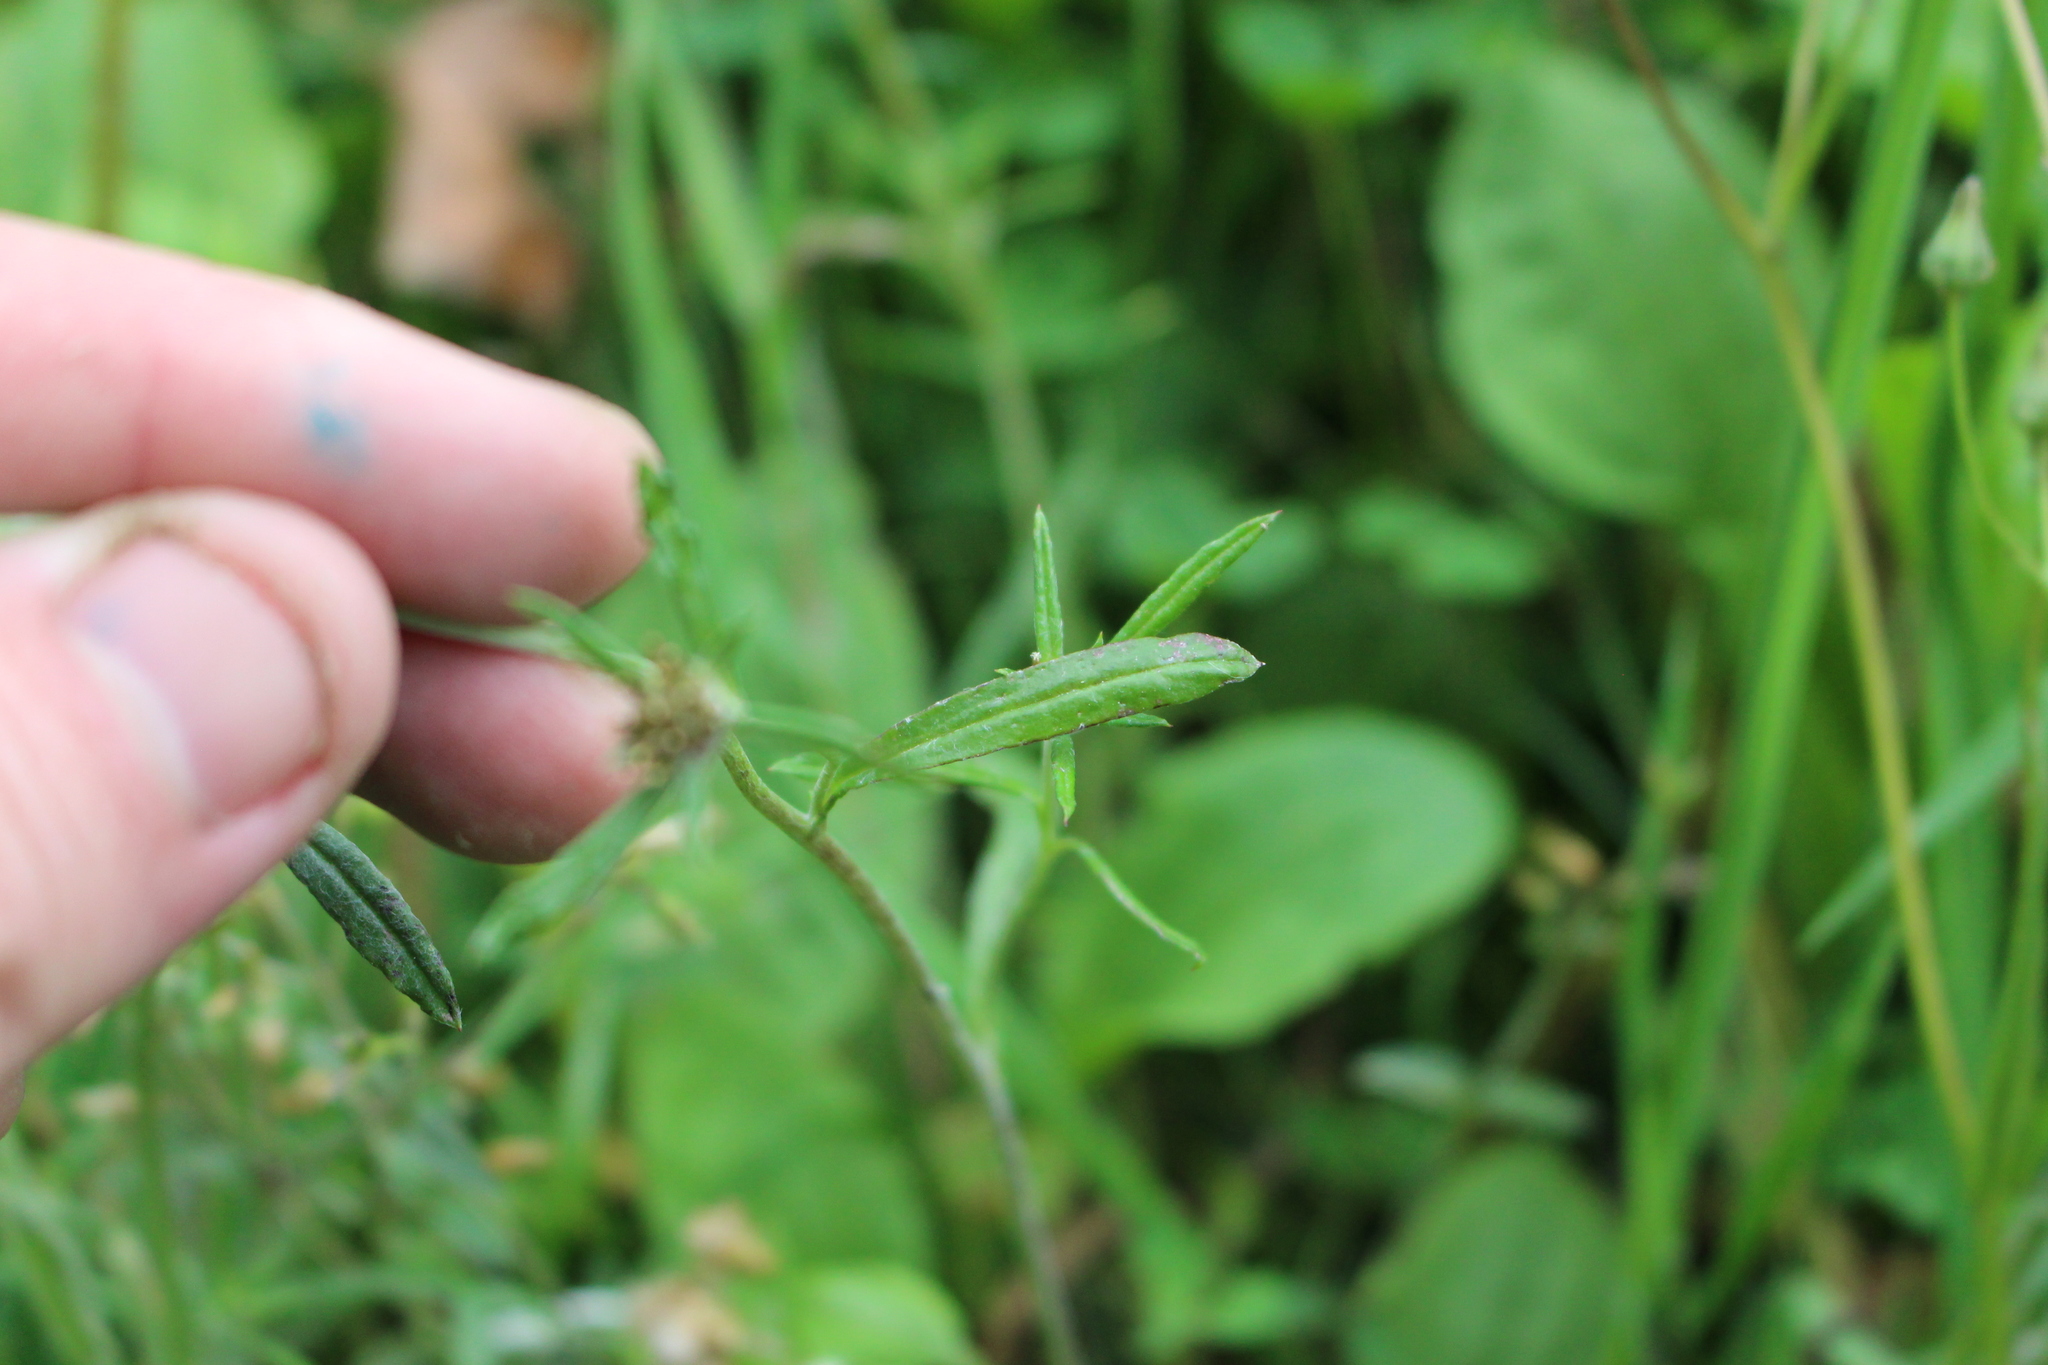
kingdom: Plantae
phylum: Tracheophyta
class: Magnoliopsida
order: Asterales
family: Asteraceae
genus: Euchiton
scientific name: Euchiton sphaericus
